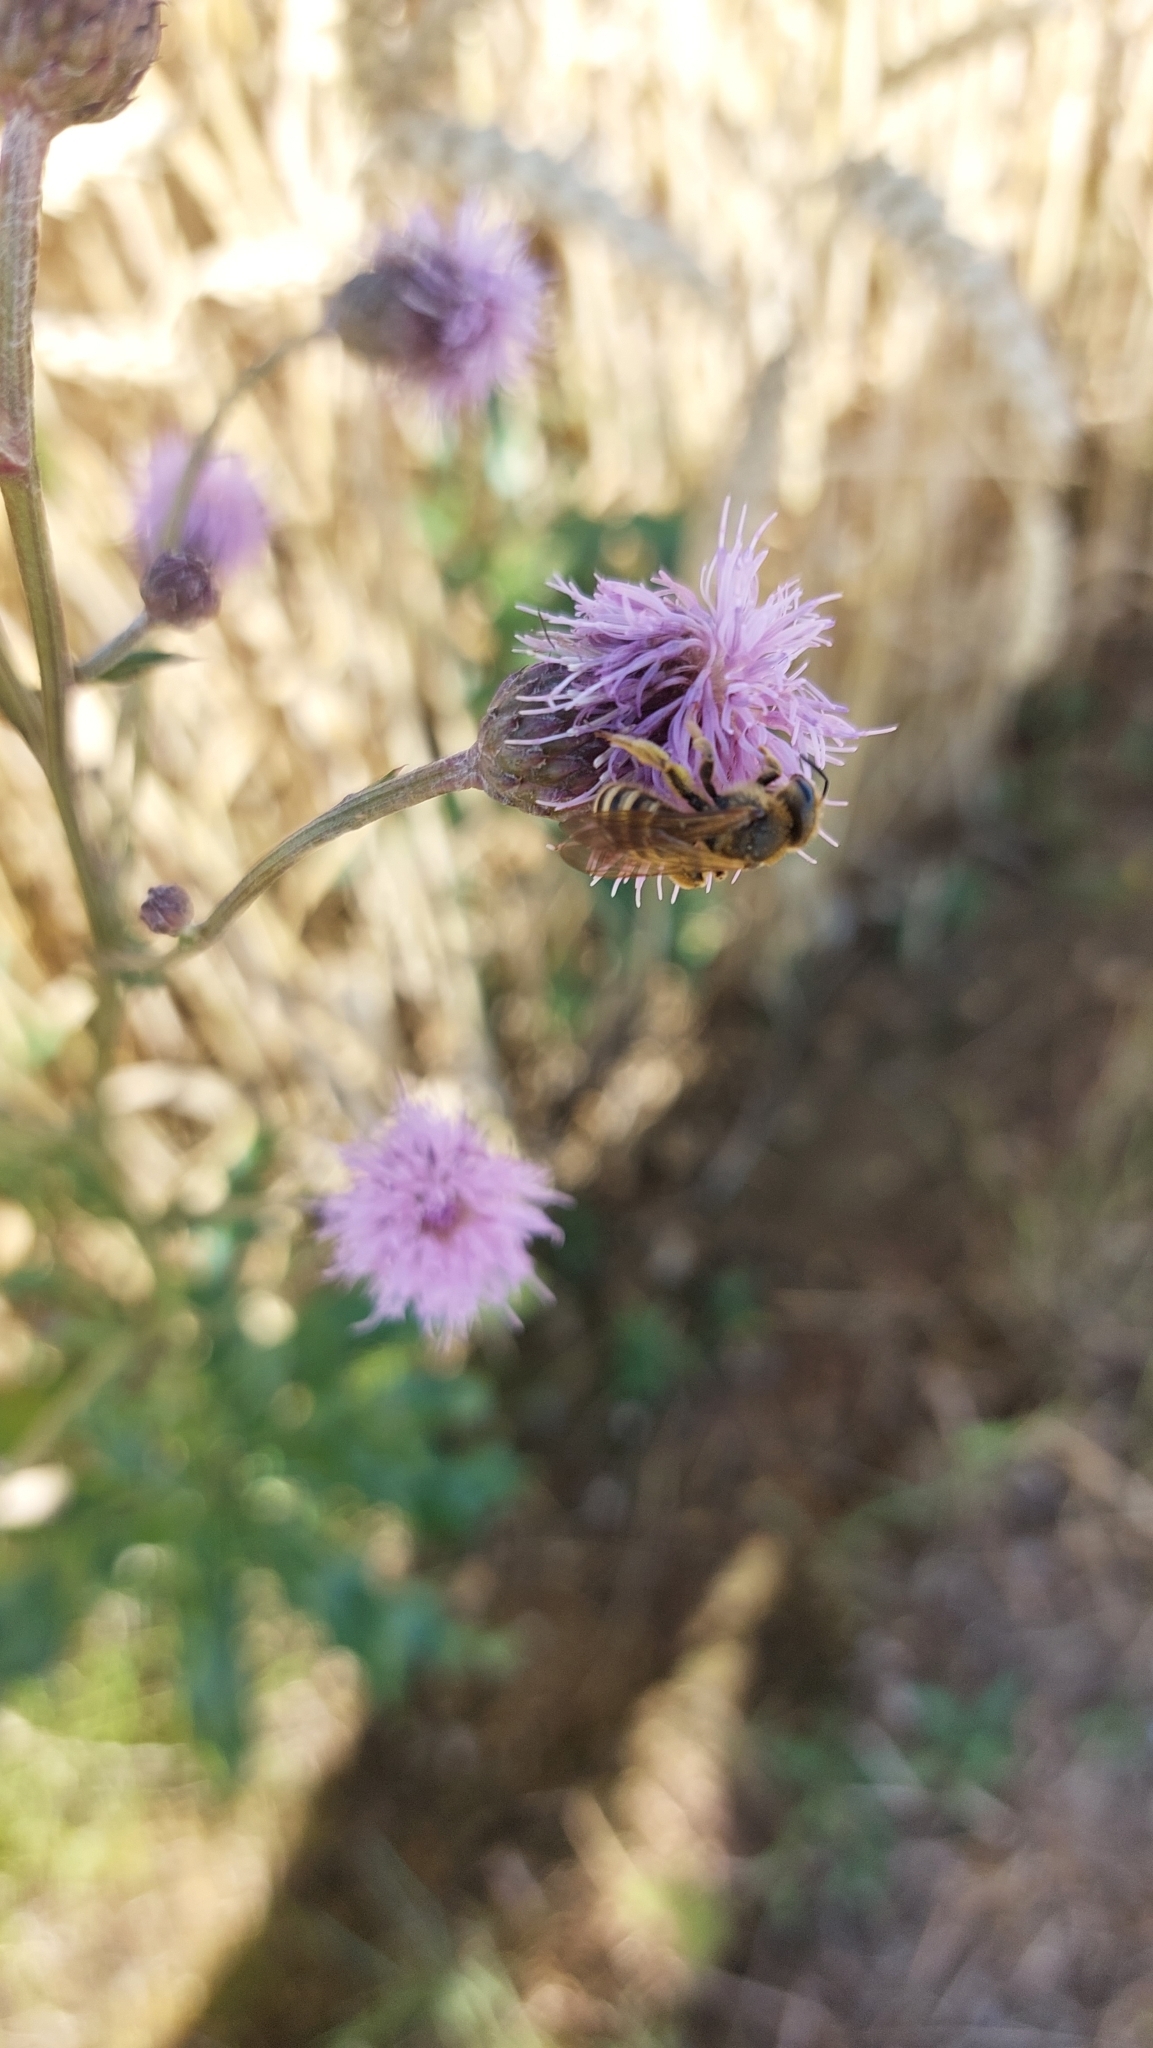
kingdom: Animalia
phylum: Arthropoda
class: Insecta
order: Hymenoptera
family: Halictidae
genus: Halictus
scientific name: Halictus scabiosae
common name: Great banded furrow bee
